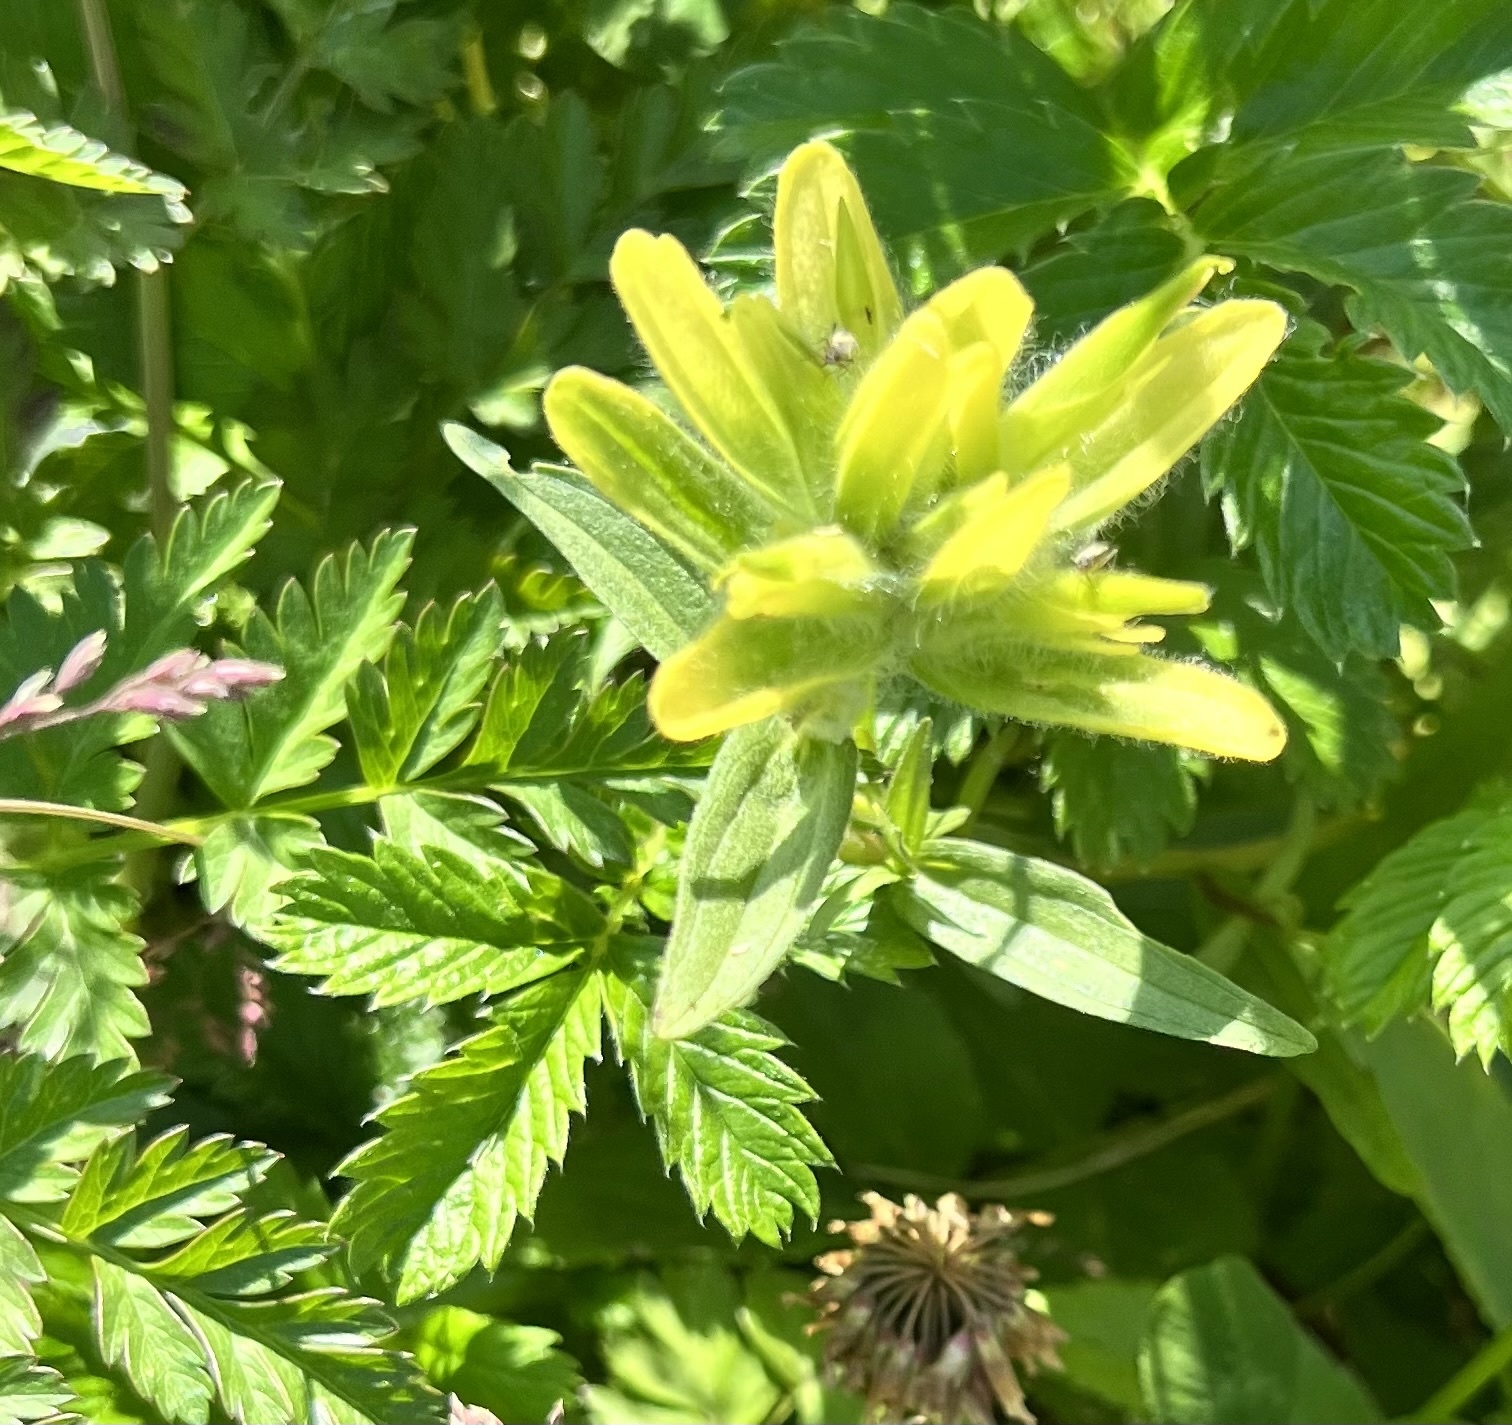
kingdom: Plantae
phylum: Tracheophyta
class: Magnoliopsida
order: Lamiales
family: Orobanchaceae
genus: Castilleja
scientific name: Castilleja unalaschcensis
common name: Unalaska paintbrush
